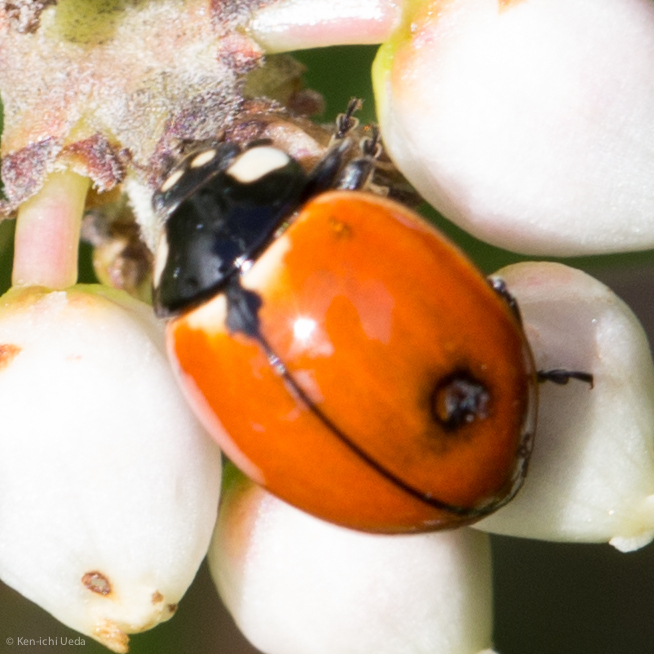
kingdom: Animalia
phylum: Arthropoda
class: Insecta
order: Coleoptera
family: Coccinellidae
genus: Coccinella
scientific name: Coccinella californica
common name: Lady beetle
